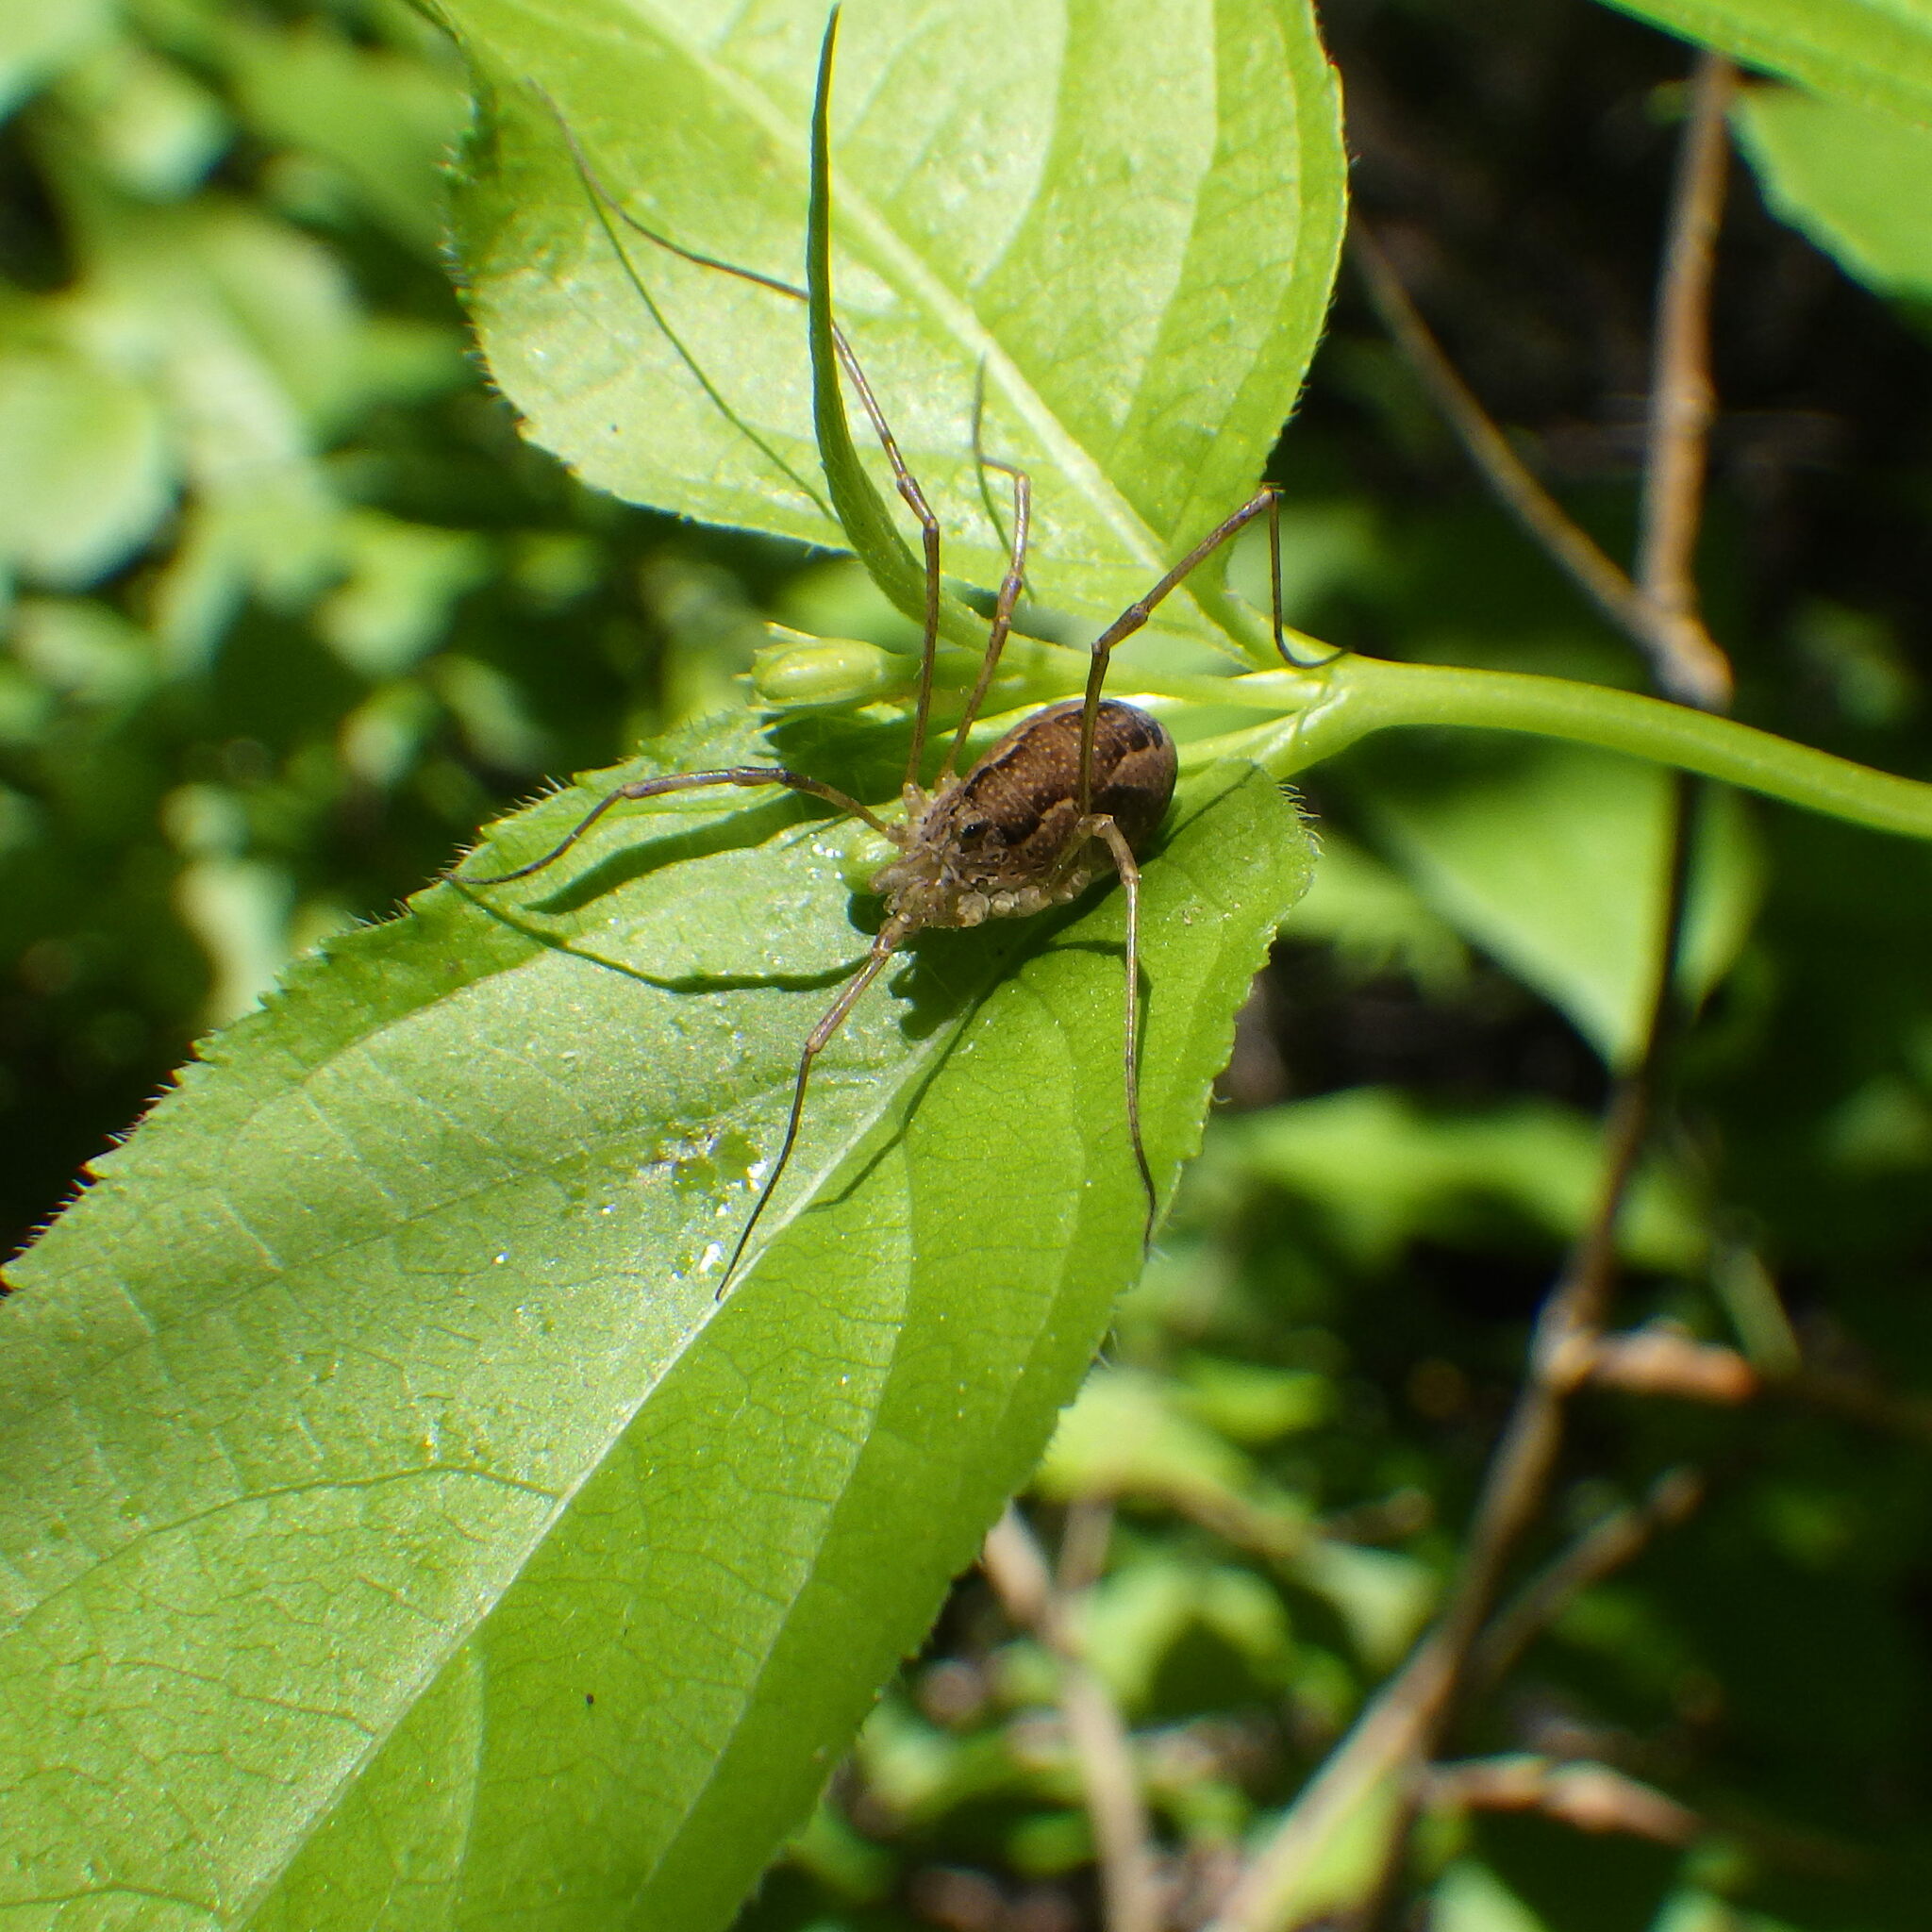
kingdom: Animalia
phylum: Arthropoda
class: Arachnida
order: Opiliones
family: Phalangiidae
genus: Rilaena
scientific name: Rilaena triangularis
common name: Spring harvestman
